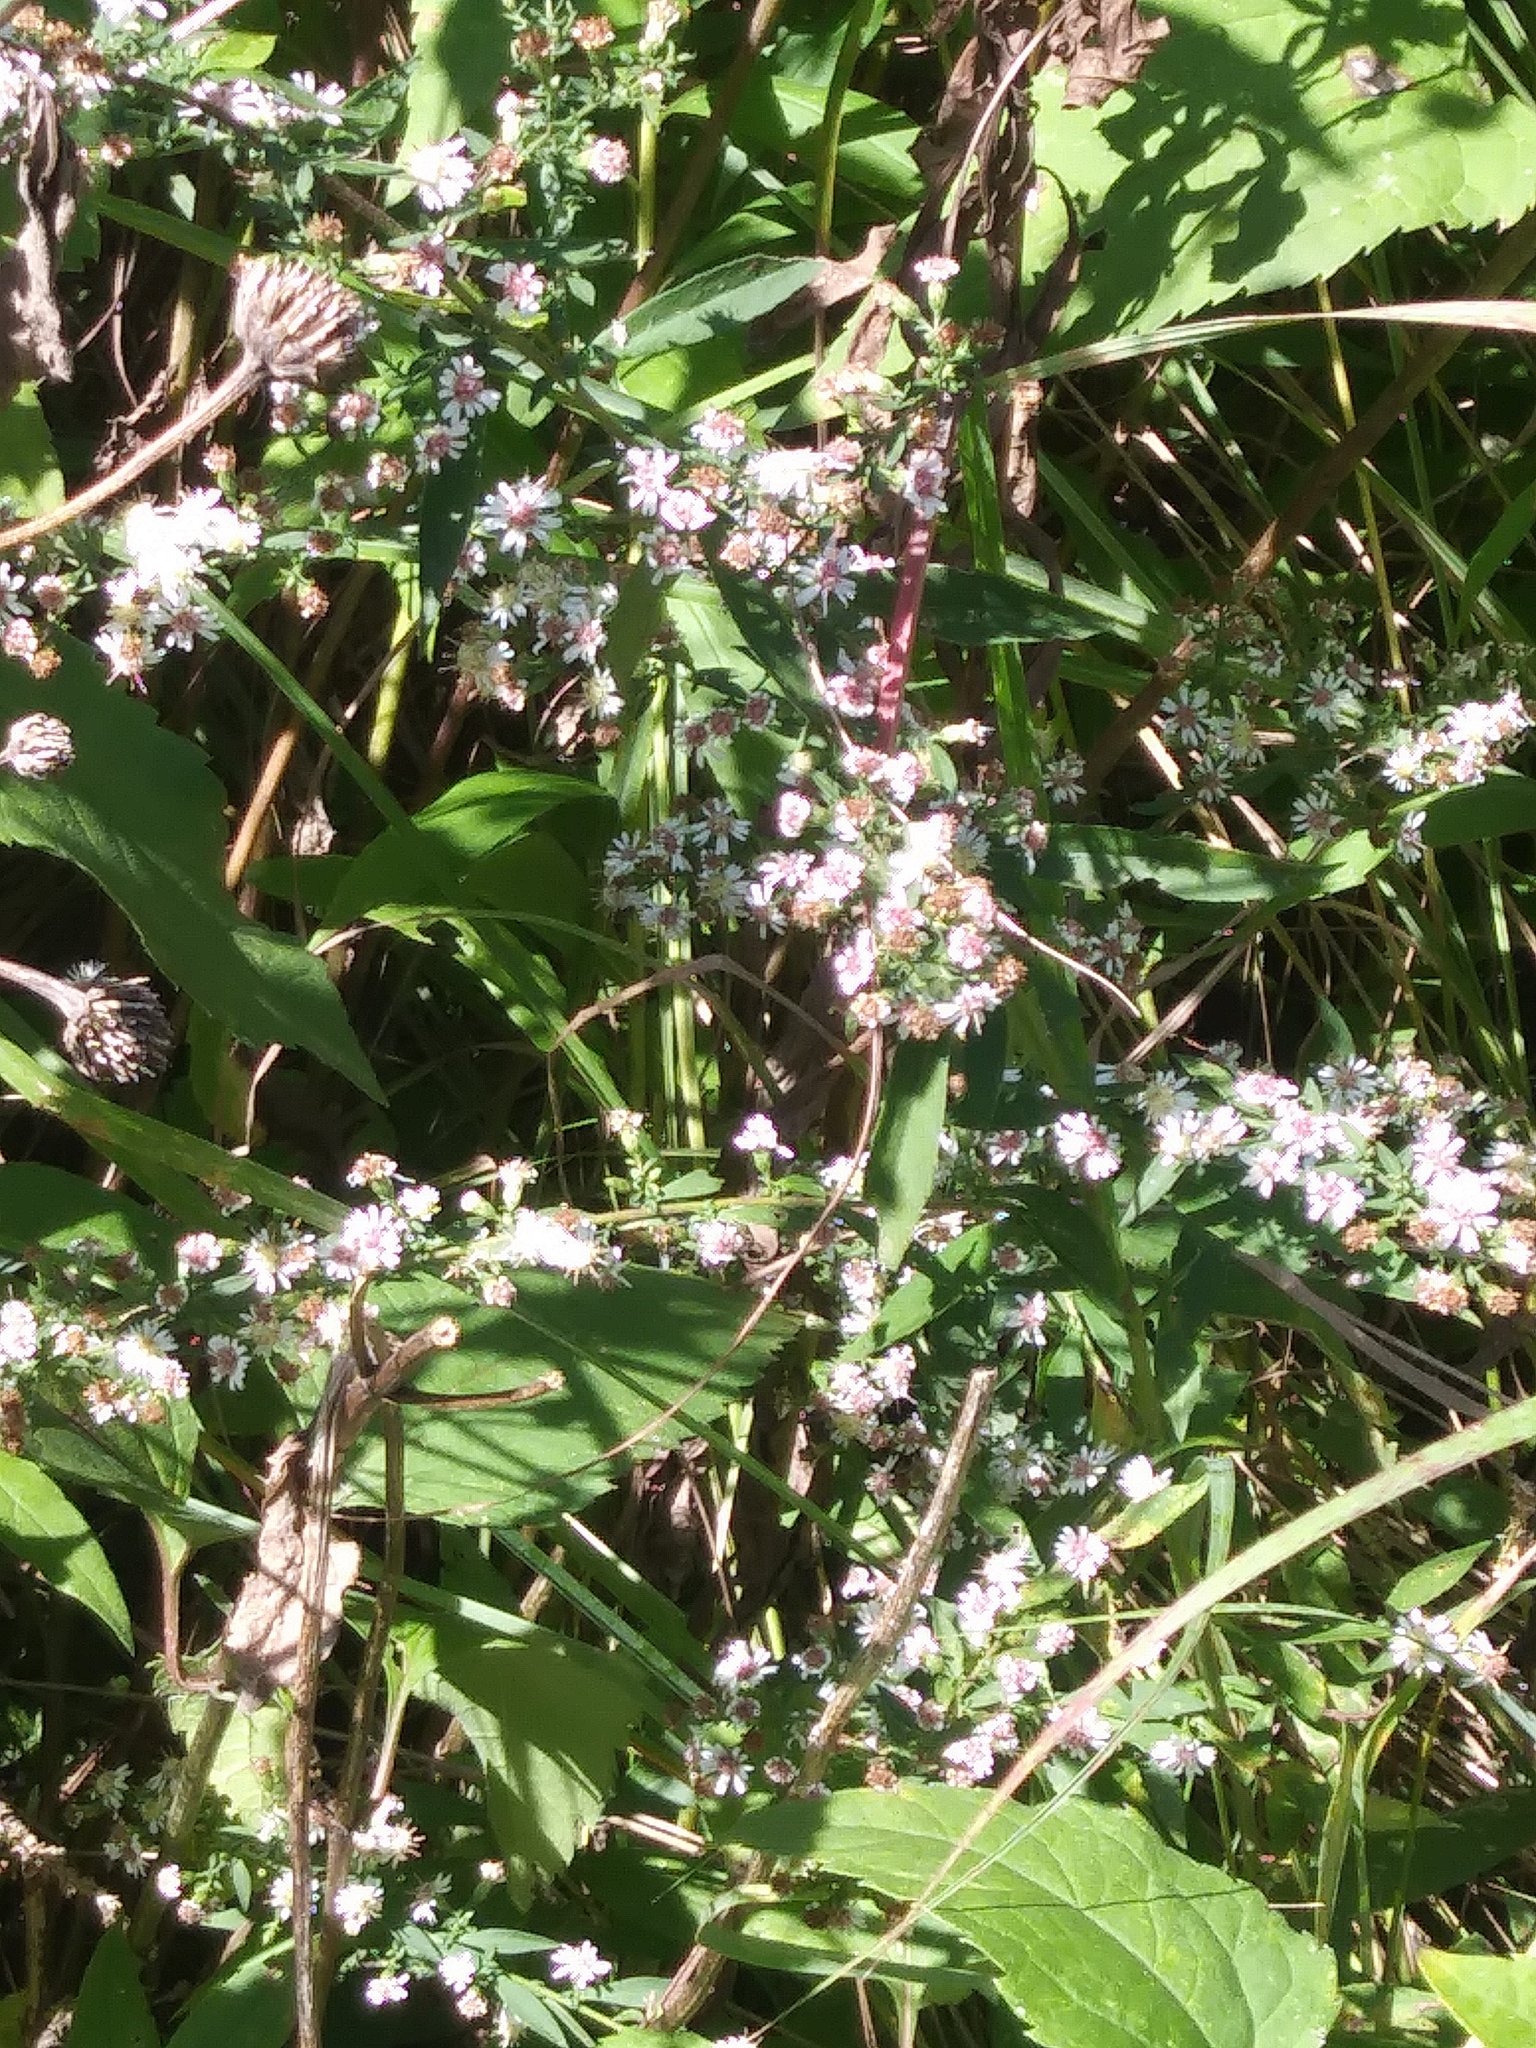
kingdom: Plantae
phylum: Tracheophyta
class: Magnoliopsida
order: Asterales
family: Asteraceae
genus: Symphyotrichum
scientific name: Symphyotrichum lateriflorum
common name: Calico aster
